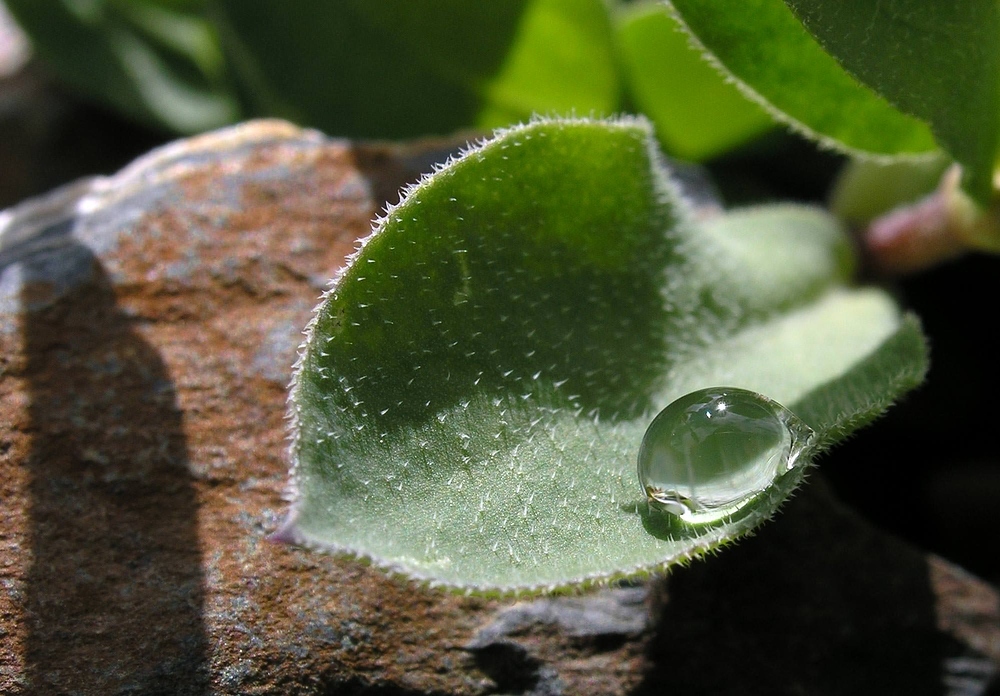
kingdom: Plantae
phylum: Tracheophyta
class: Magnoliopsida
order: Caryophyllales
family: Caryophyllaceae
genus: Silene
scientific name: Silene vulgaris
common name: Bladder campion
